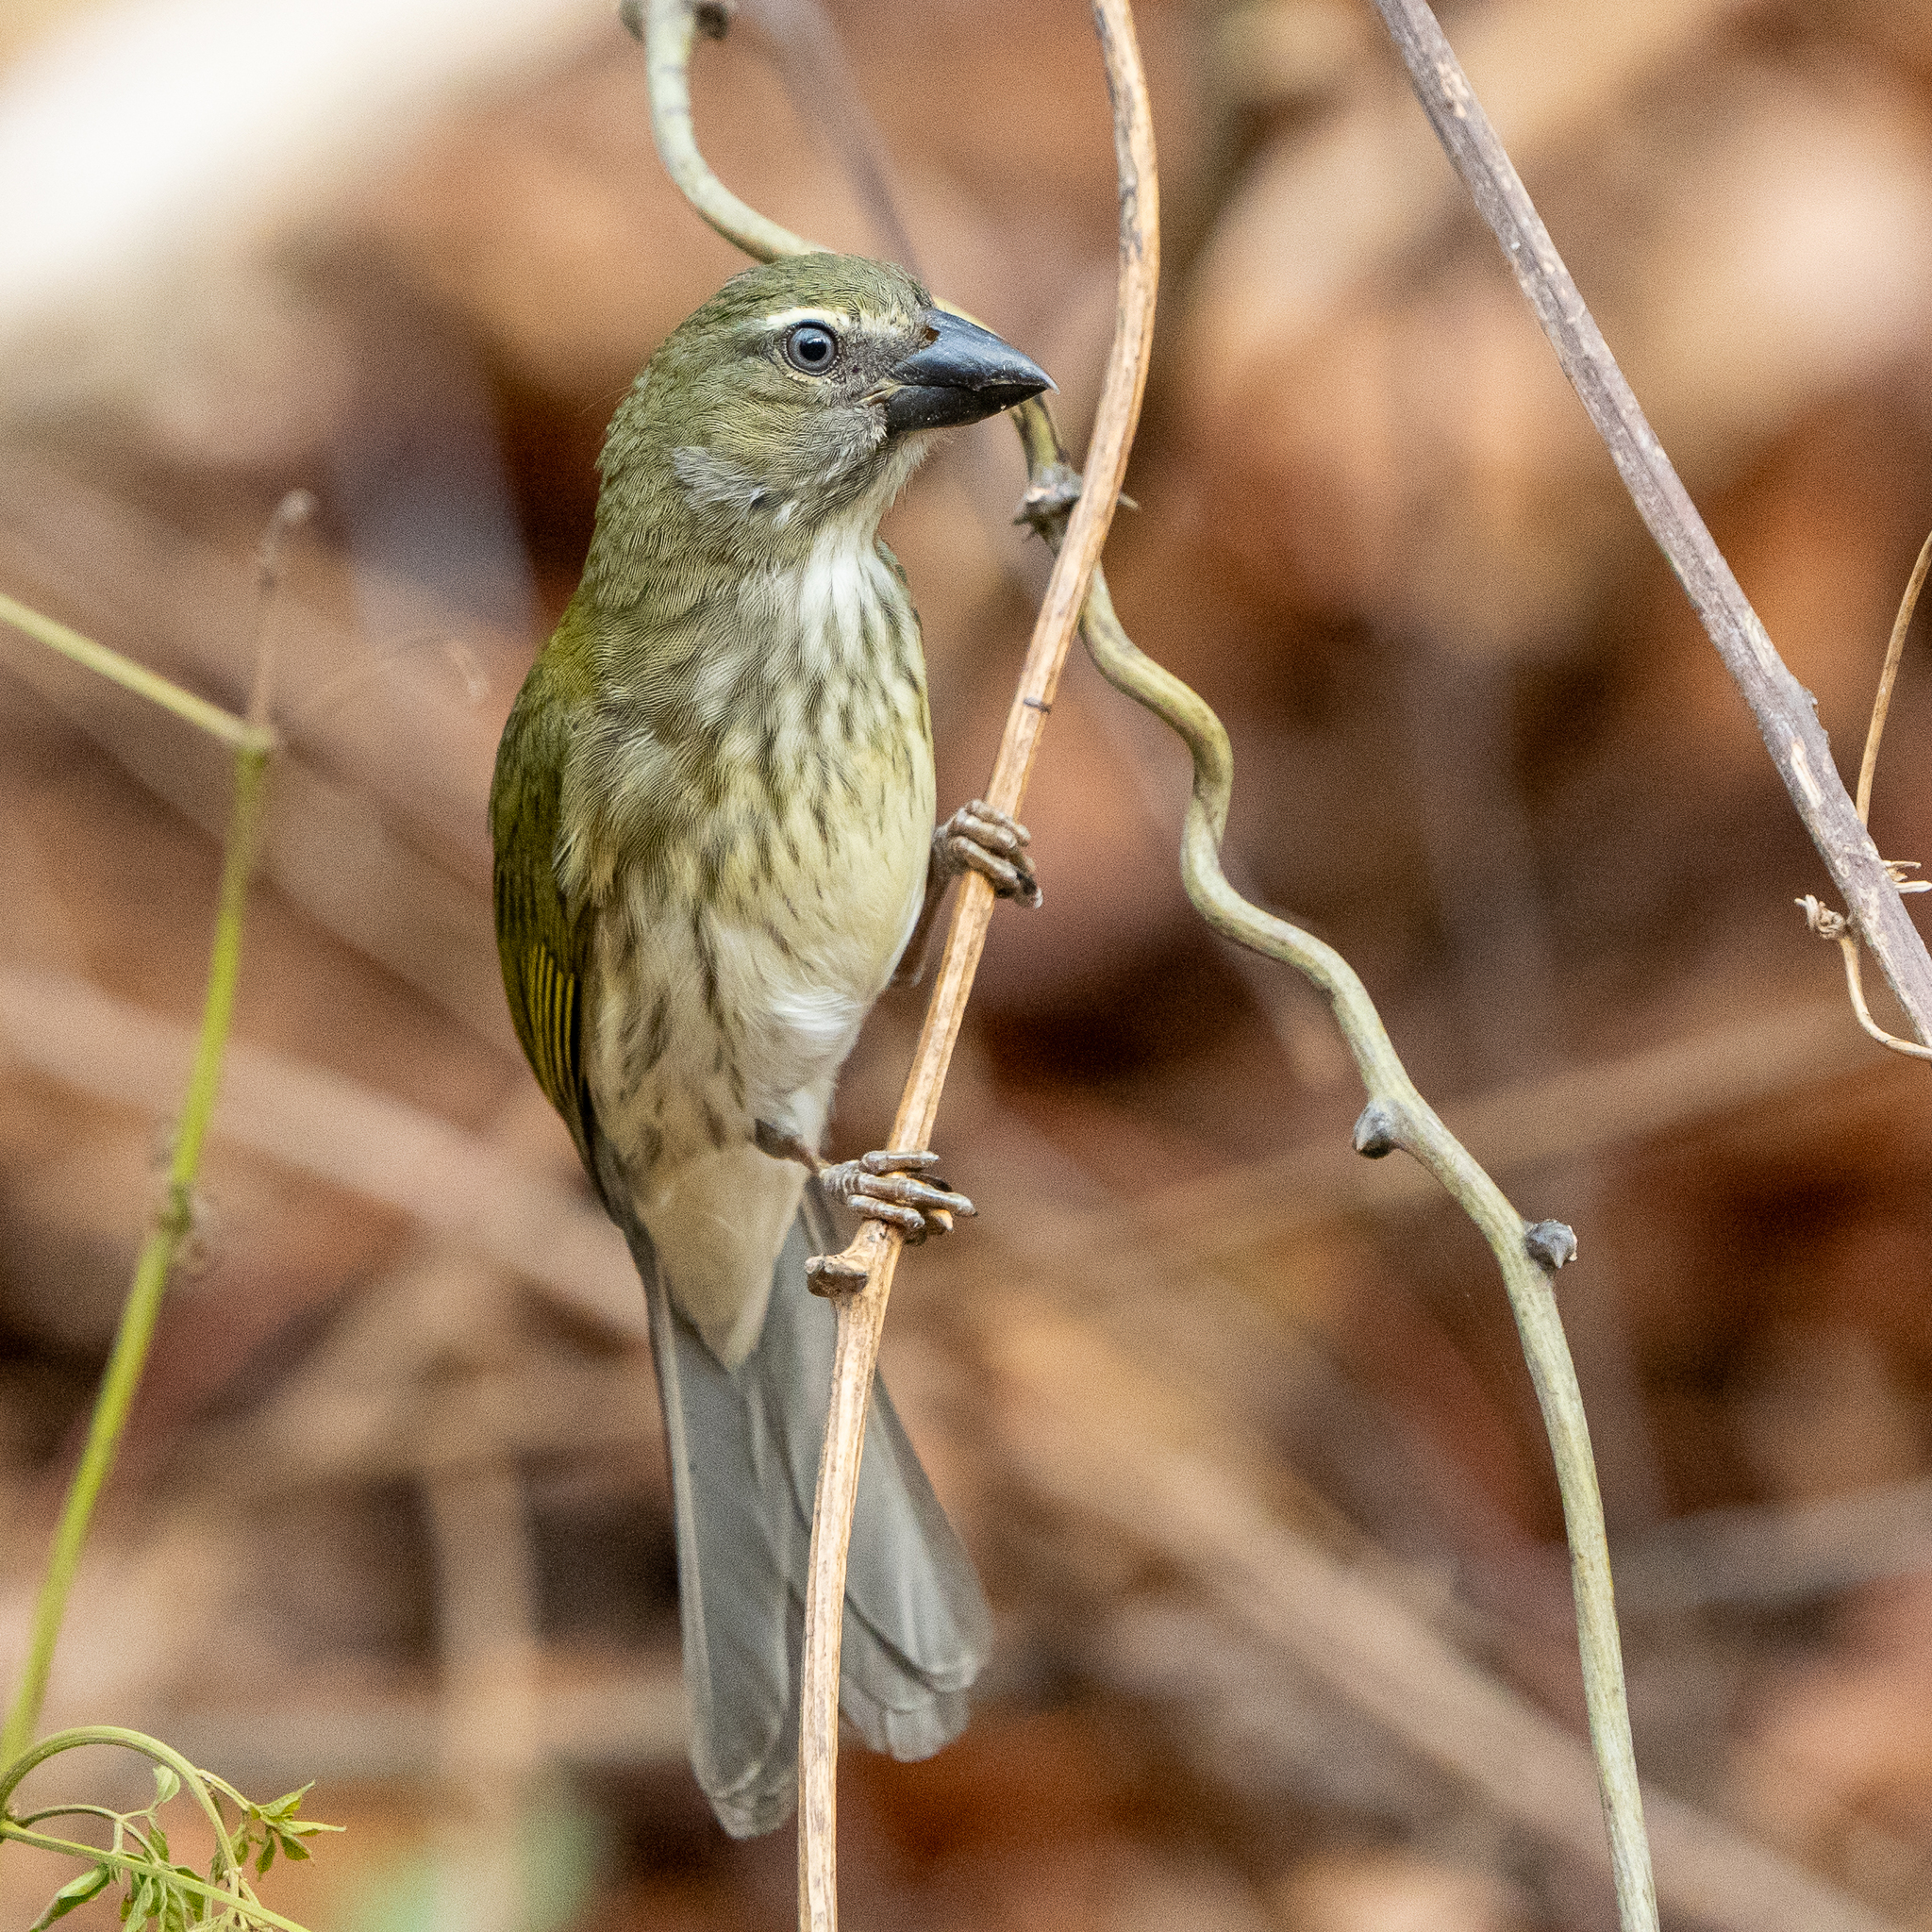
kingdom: Animalia
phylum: Chordata
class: Aves
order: Passeriformes
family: Thraupidae
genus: Saltator
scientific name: Saltator striatipectus
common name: Streaked saltator
